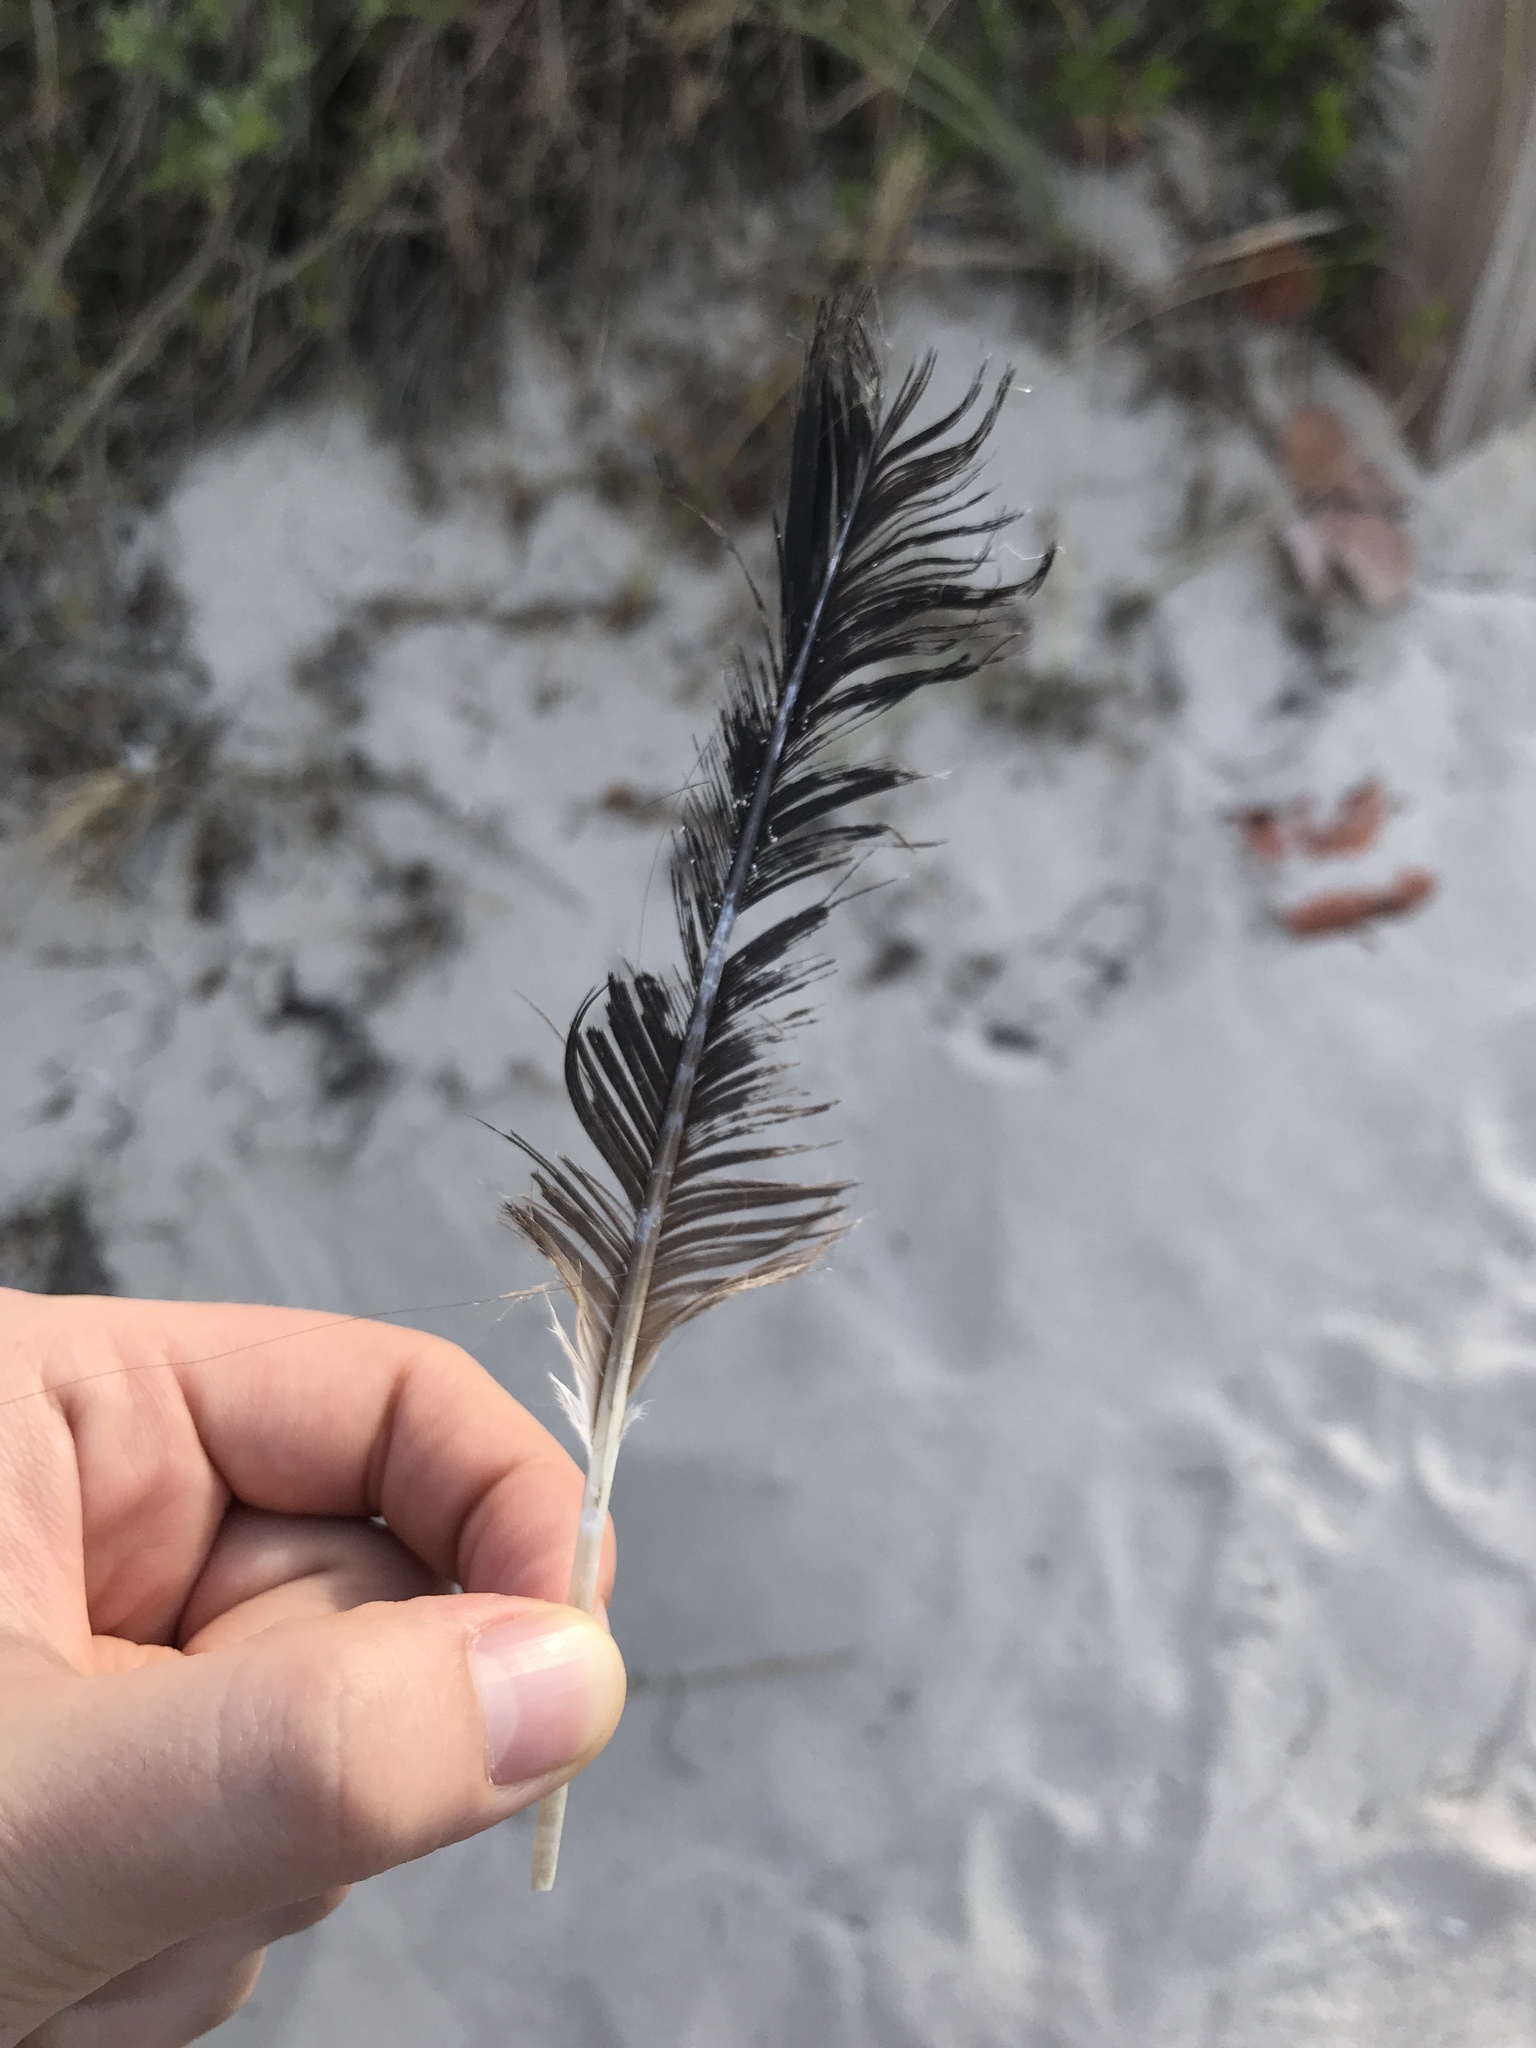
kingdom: Animalia
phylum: Chordata
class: Aves
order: Suliformes
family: Phalacrocoracidae
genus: Phalacrocorax
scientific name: Phalacrocorax auritus
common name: Double-crested cormorant
